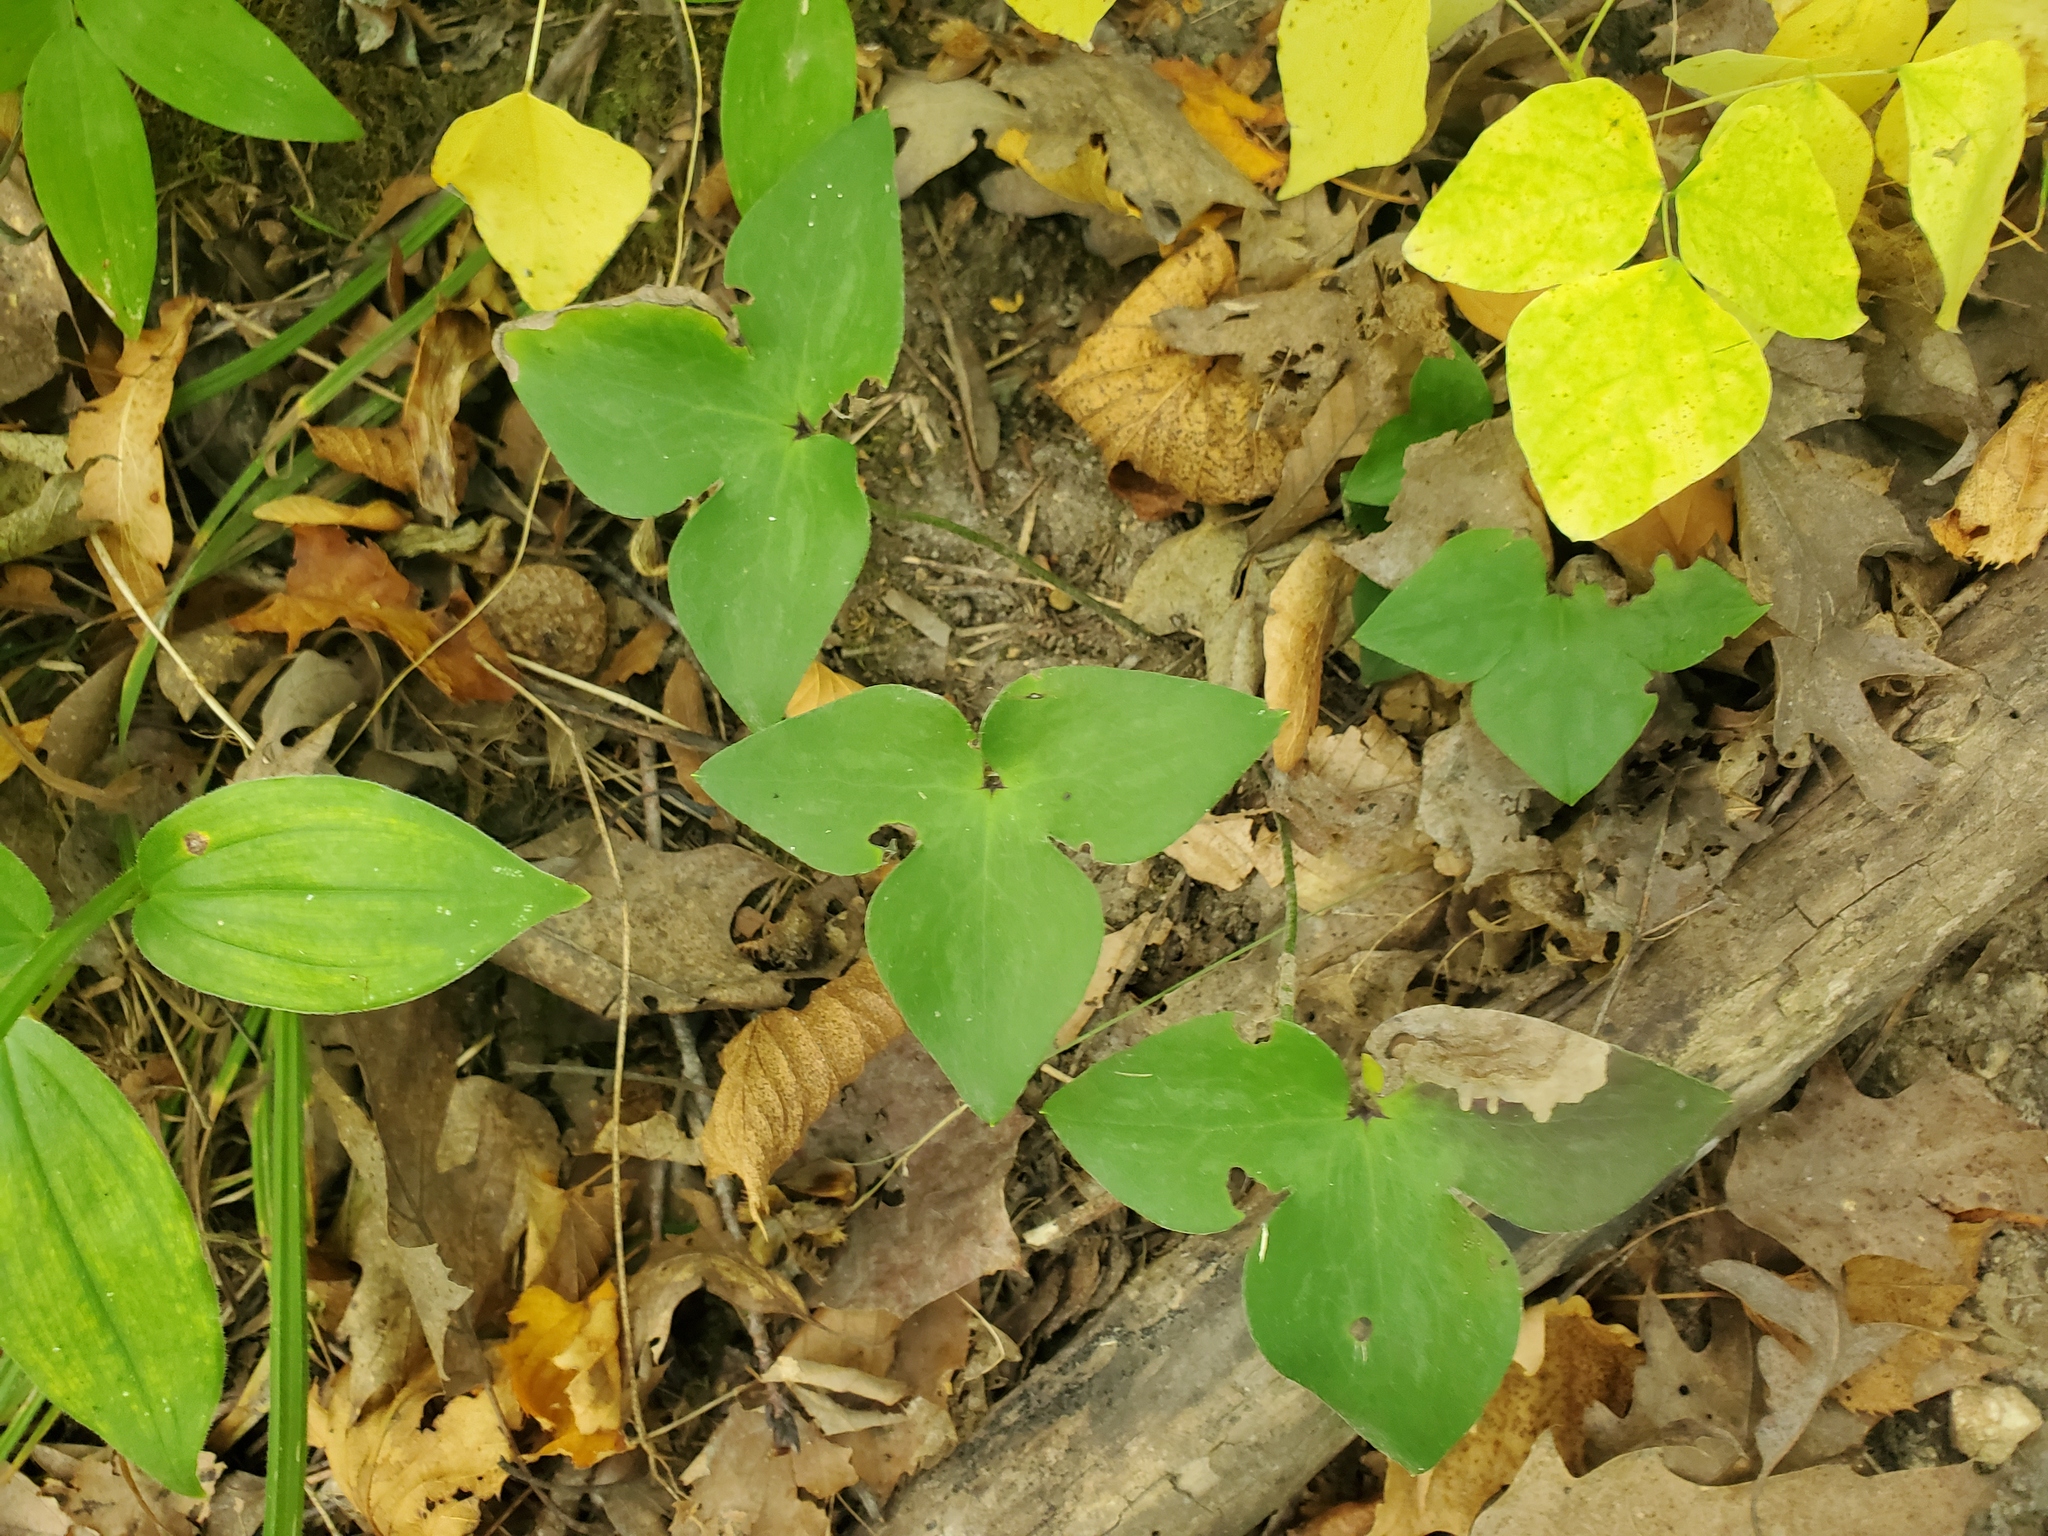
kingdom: Plantae
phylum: Tracheophyta
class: Magnoliopsida
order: Ranunculales
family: Ranunculaceae
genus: Hepatica
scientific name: Hepatica acutiloba
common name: Sharp-lobed hepatica
